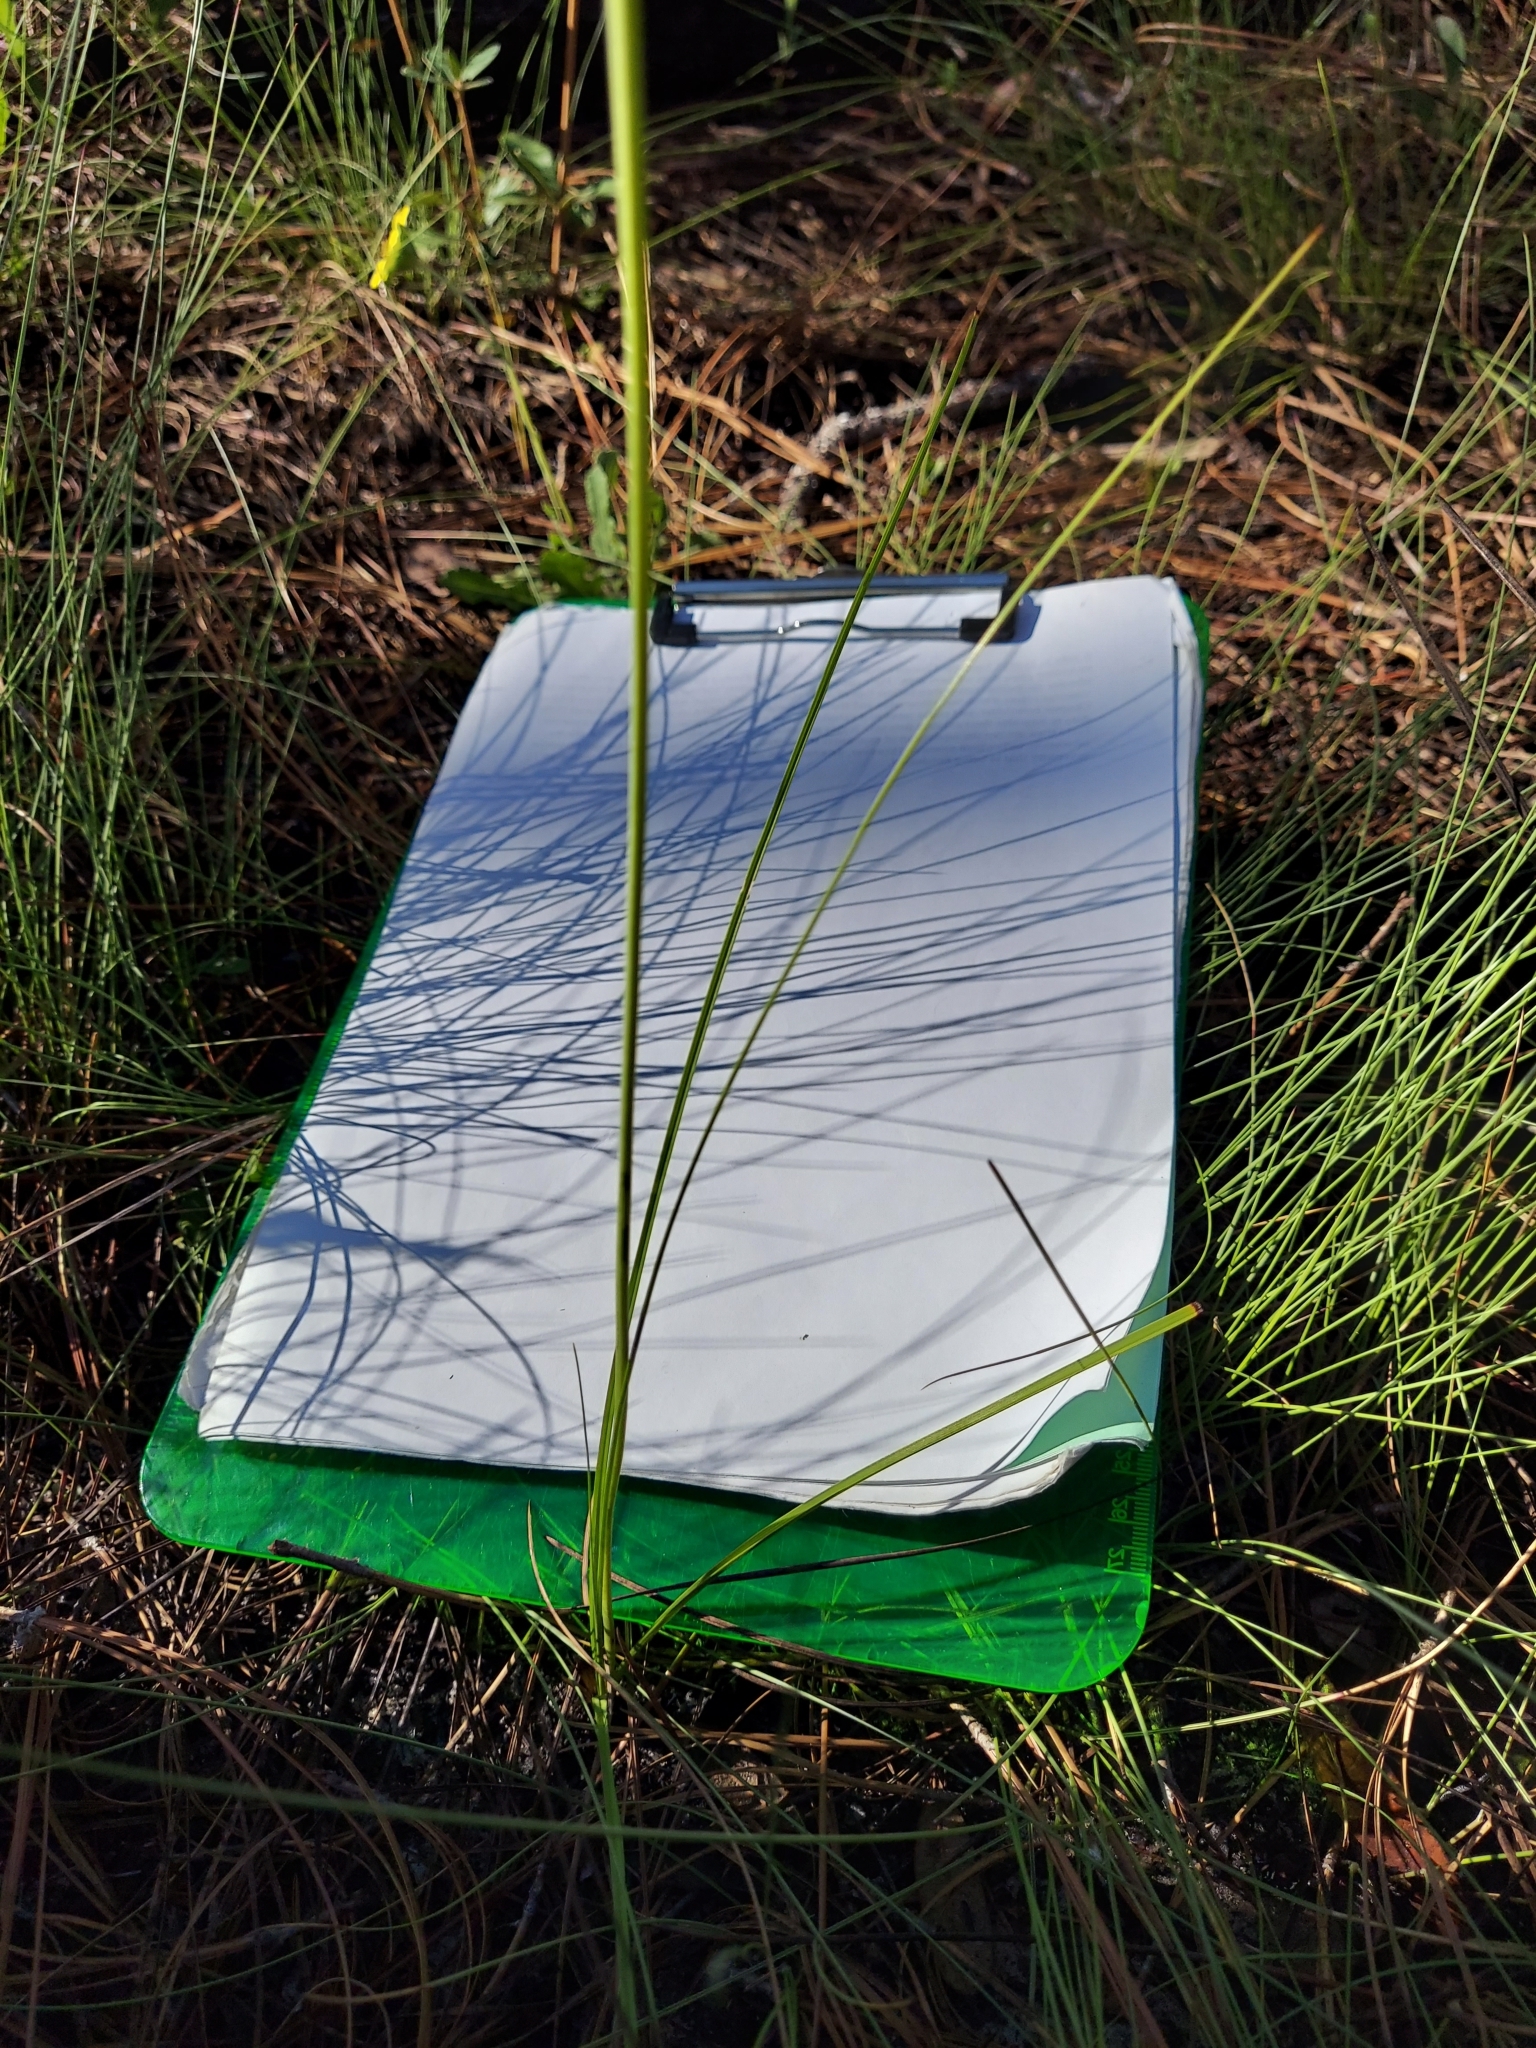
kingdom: Plantae
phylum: Tracheophyta
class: Liliopsida
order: Liliales
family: Melanthiaceae
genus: Schoenocaulon
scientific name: Schoenocaulon dubium
